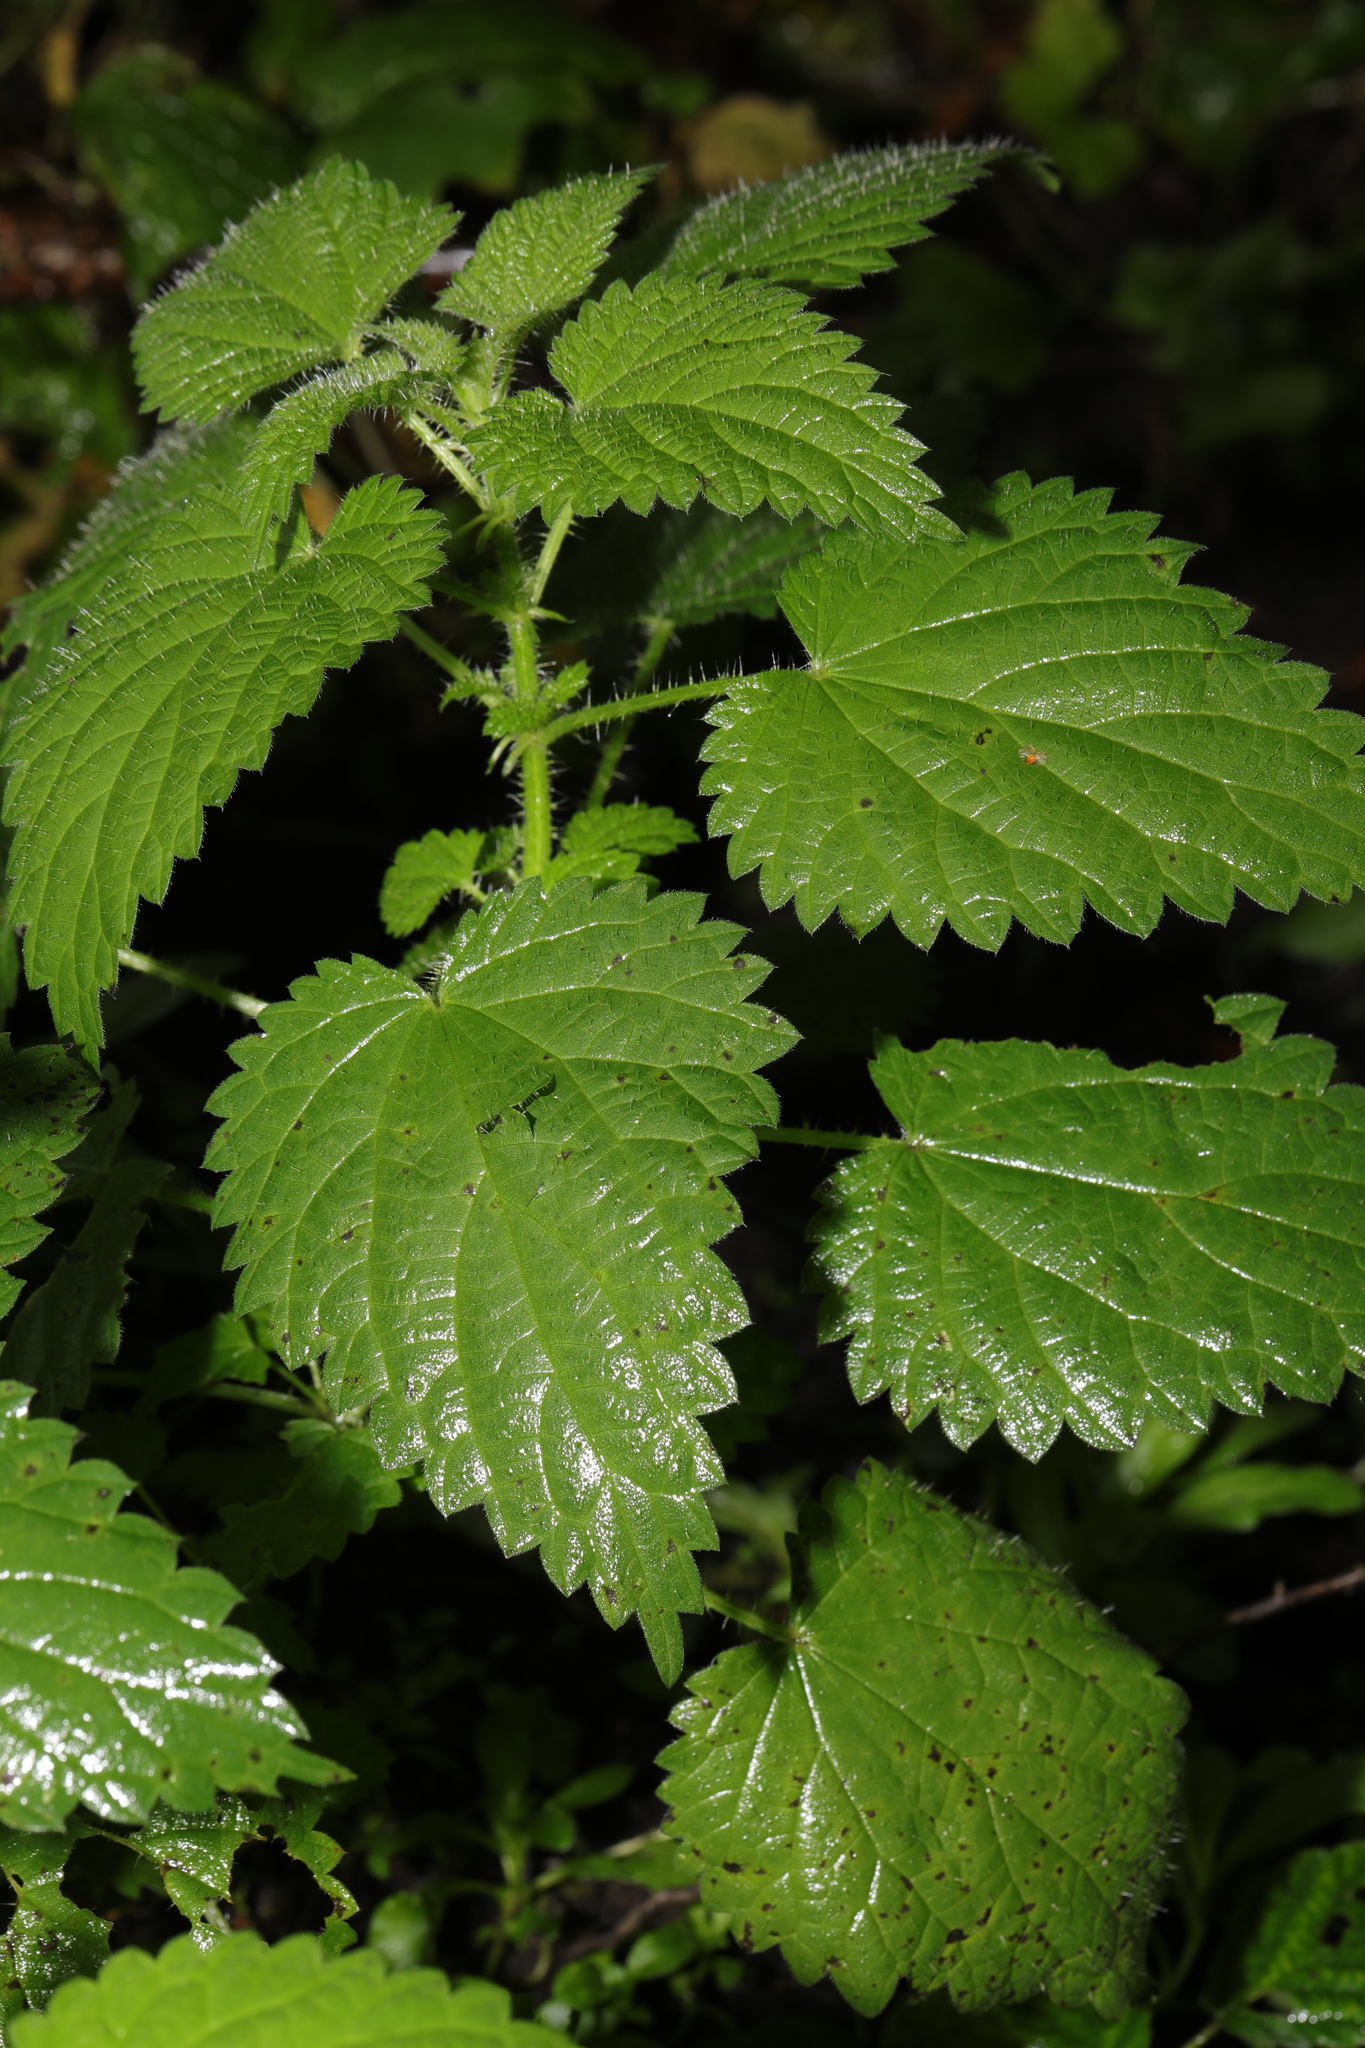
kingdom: Plantae
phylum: Tracheophyta
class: Magnoliopsida
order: Rosales
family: Urticaceae
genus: Urtica
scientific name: Urtica dioica
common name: Common nettle
